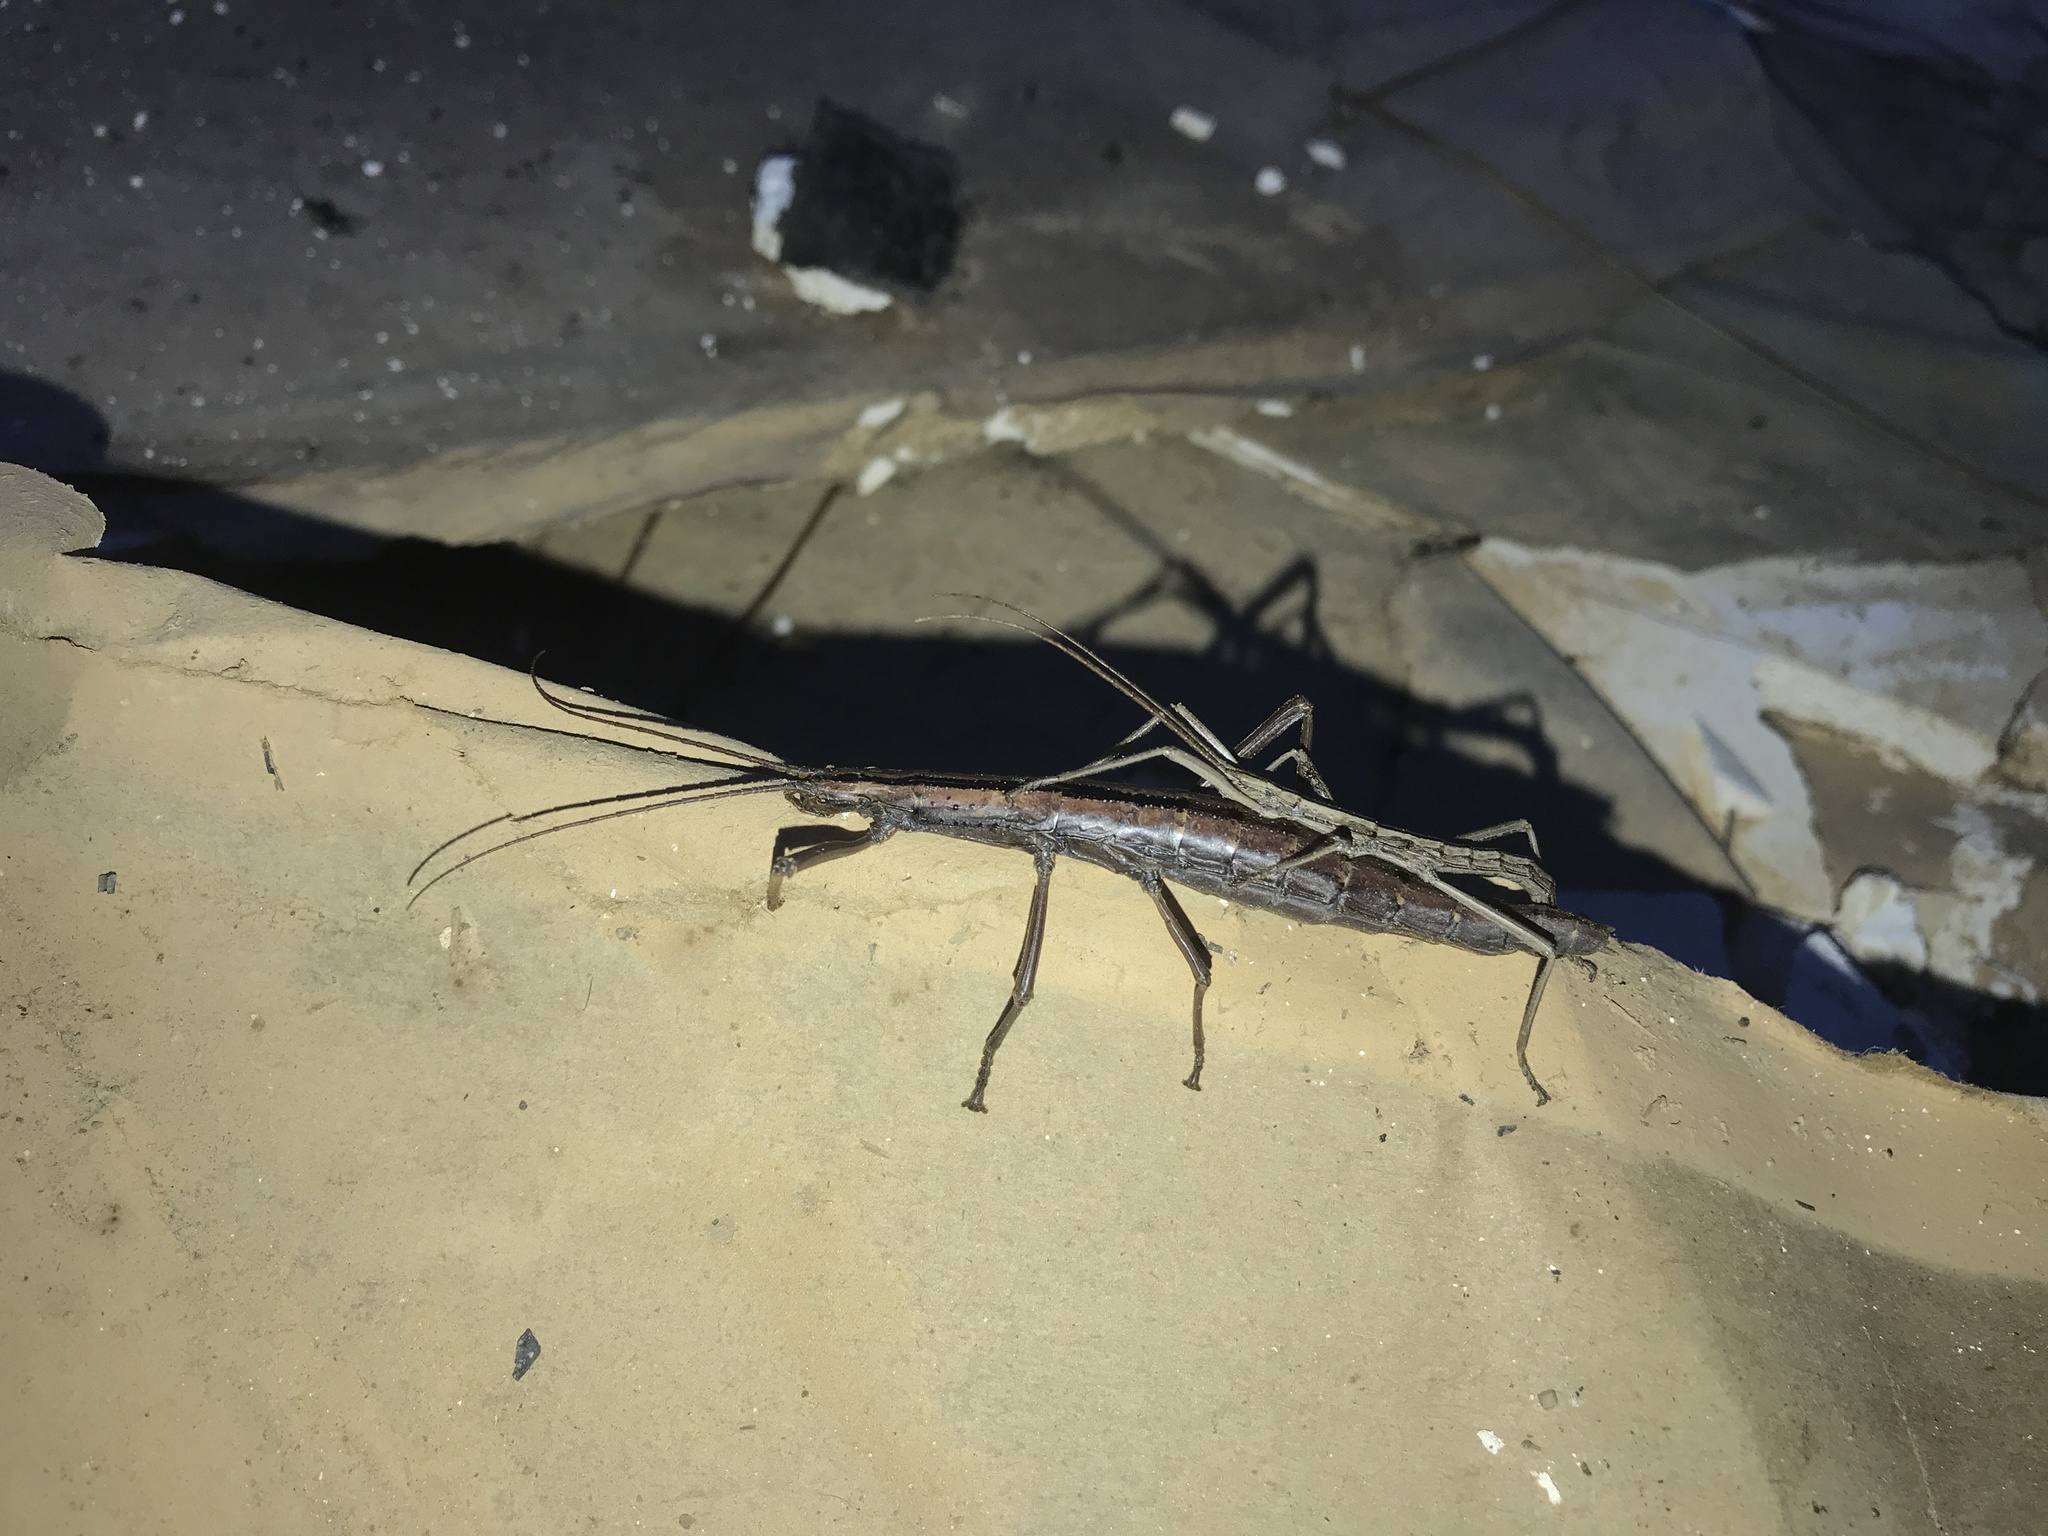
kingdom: Animalia
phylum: Arthropoda
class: Insecta
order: Phasmida
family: Pseudophasmatidae
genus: Anisomorpha
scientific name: Anisomorpha buprestoides
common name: Florida stick insect
